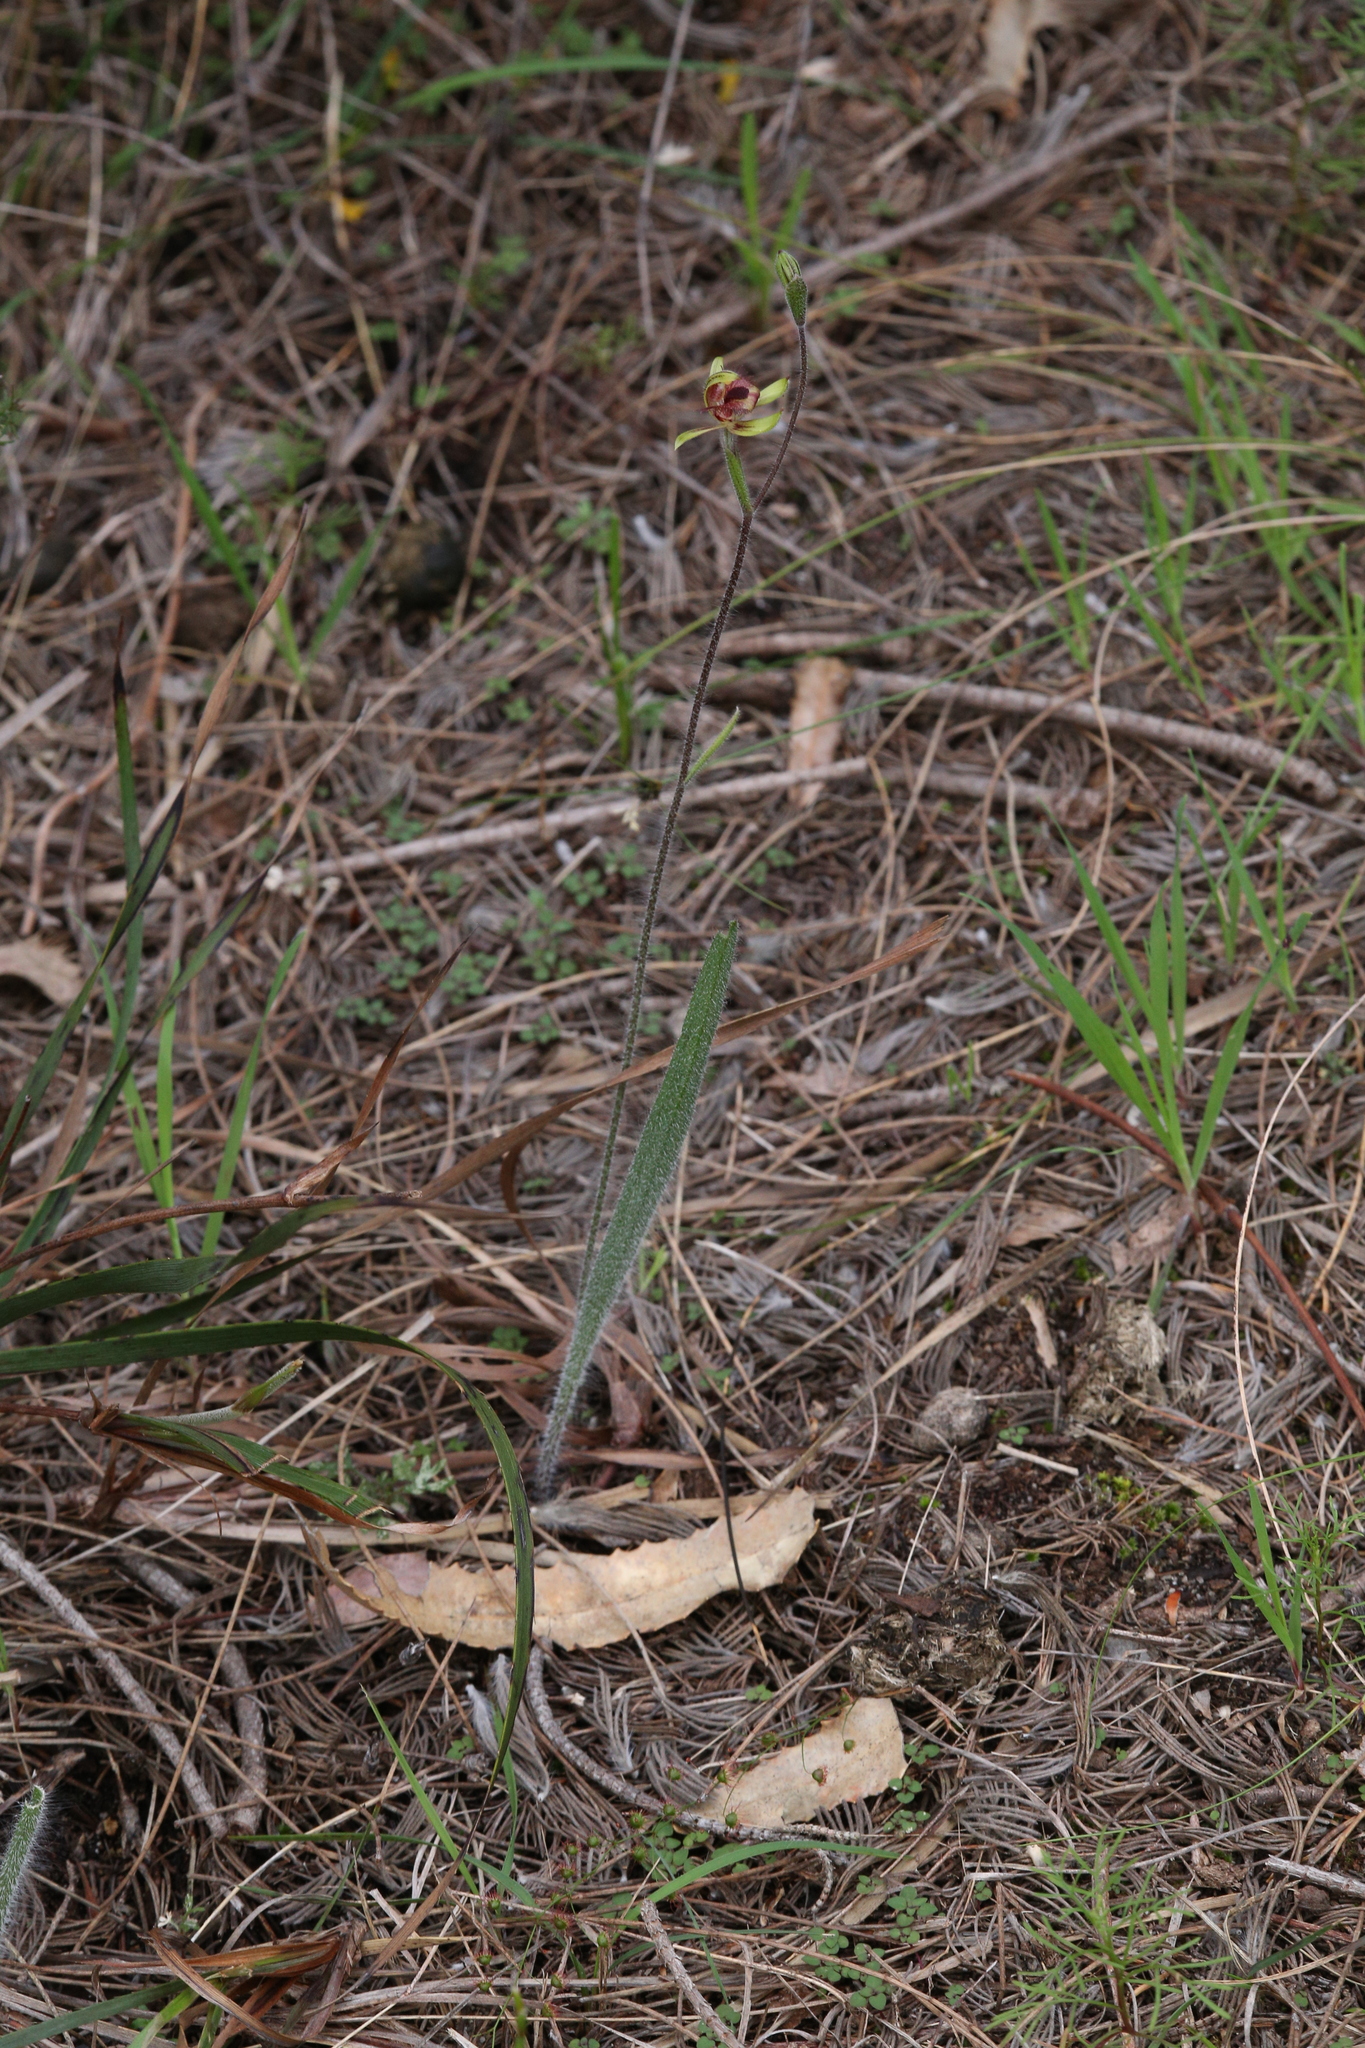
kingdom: Plantae
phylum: Tracheophyta
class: Liliopsida
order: Asparagales
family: Orchidaceae
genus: Caladenia
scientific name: Caladenia discoidea
